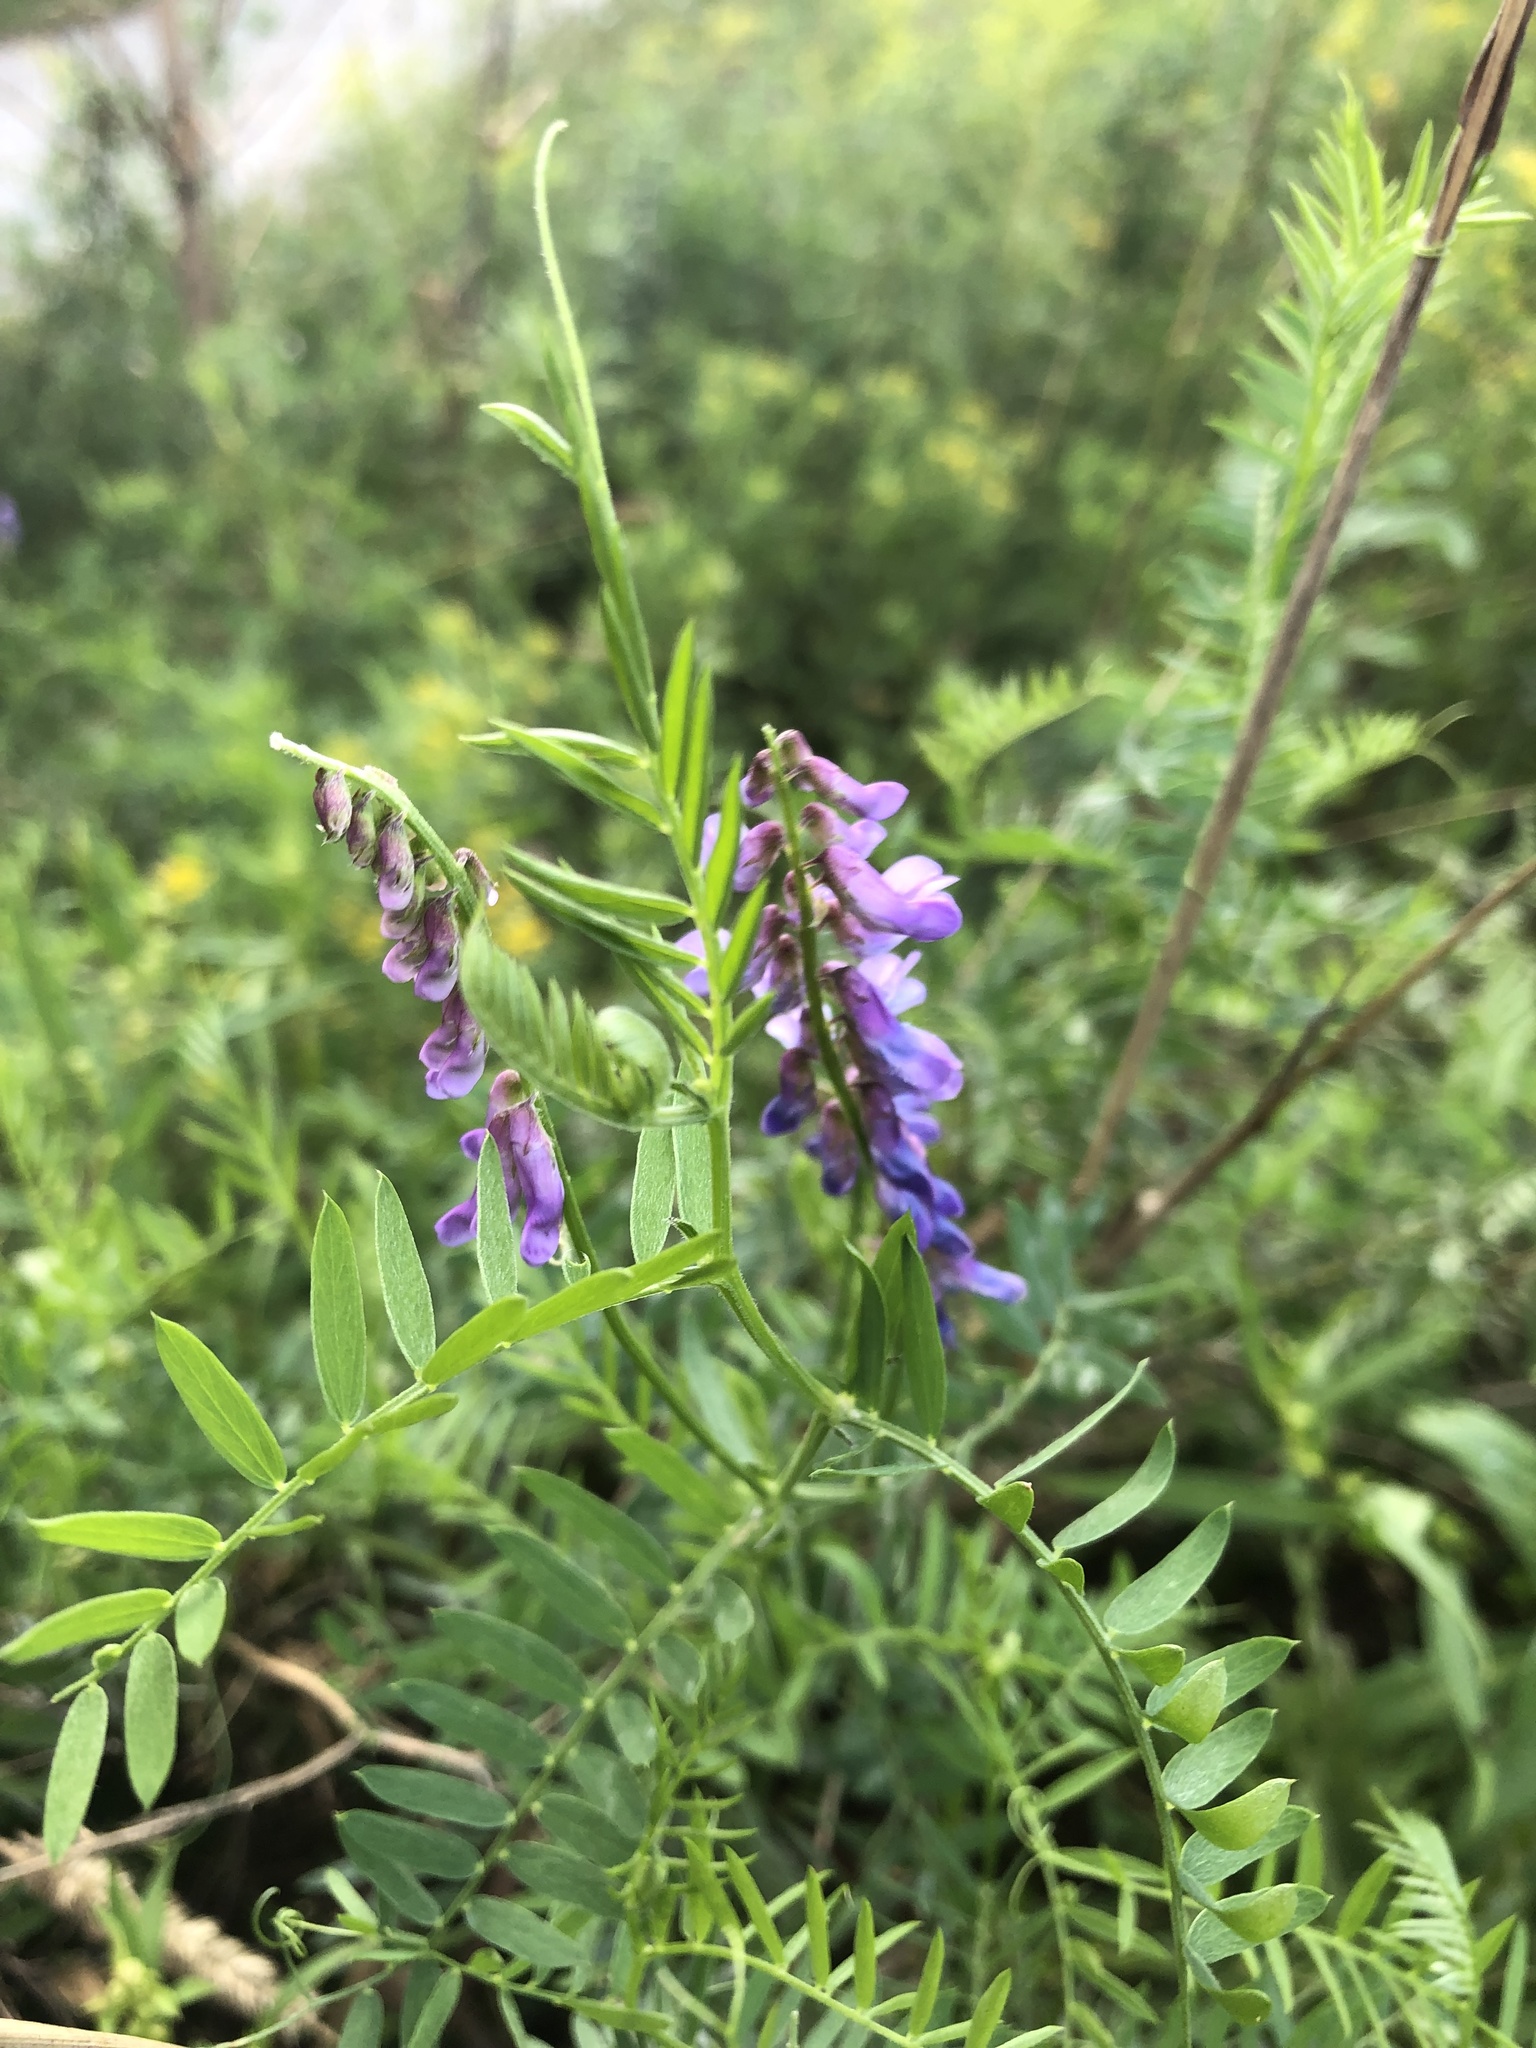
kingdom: Plantae
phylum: Tracheophyta
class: Magnoliopsida
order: Fabales
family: Fabaceae
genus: Vicia
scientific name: Vicia cracca
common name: Bird vetch
